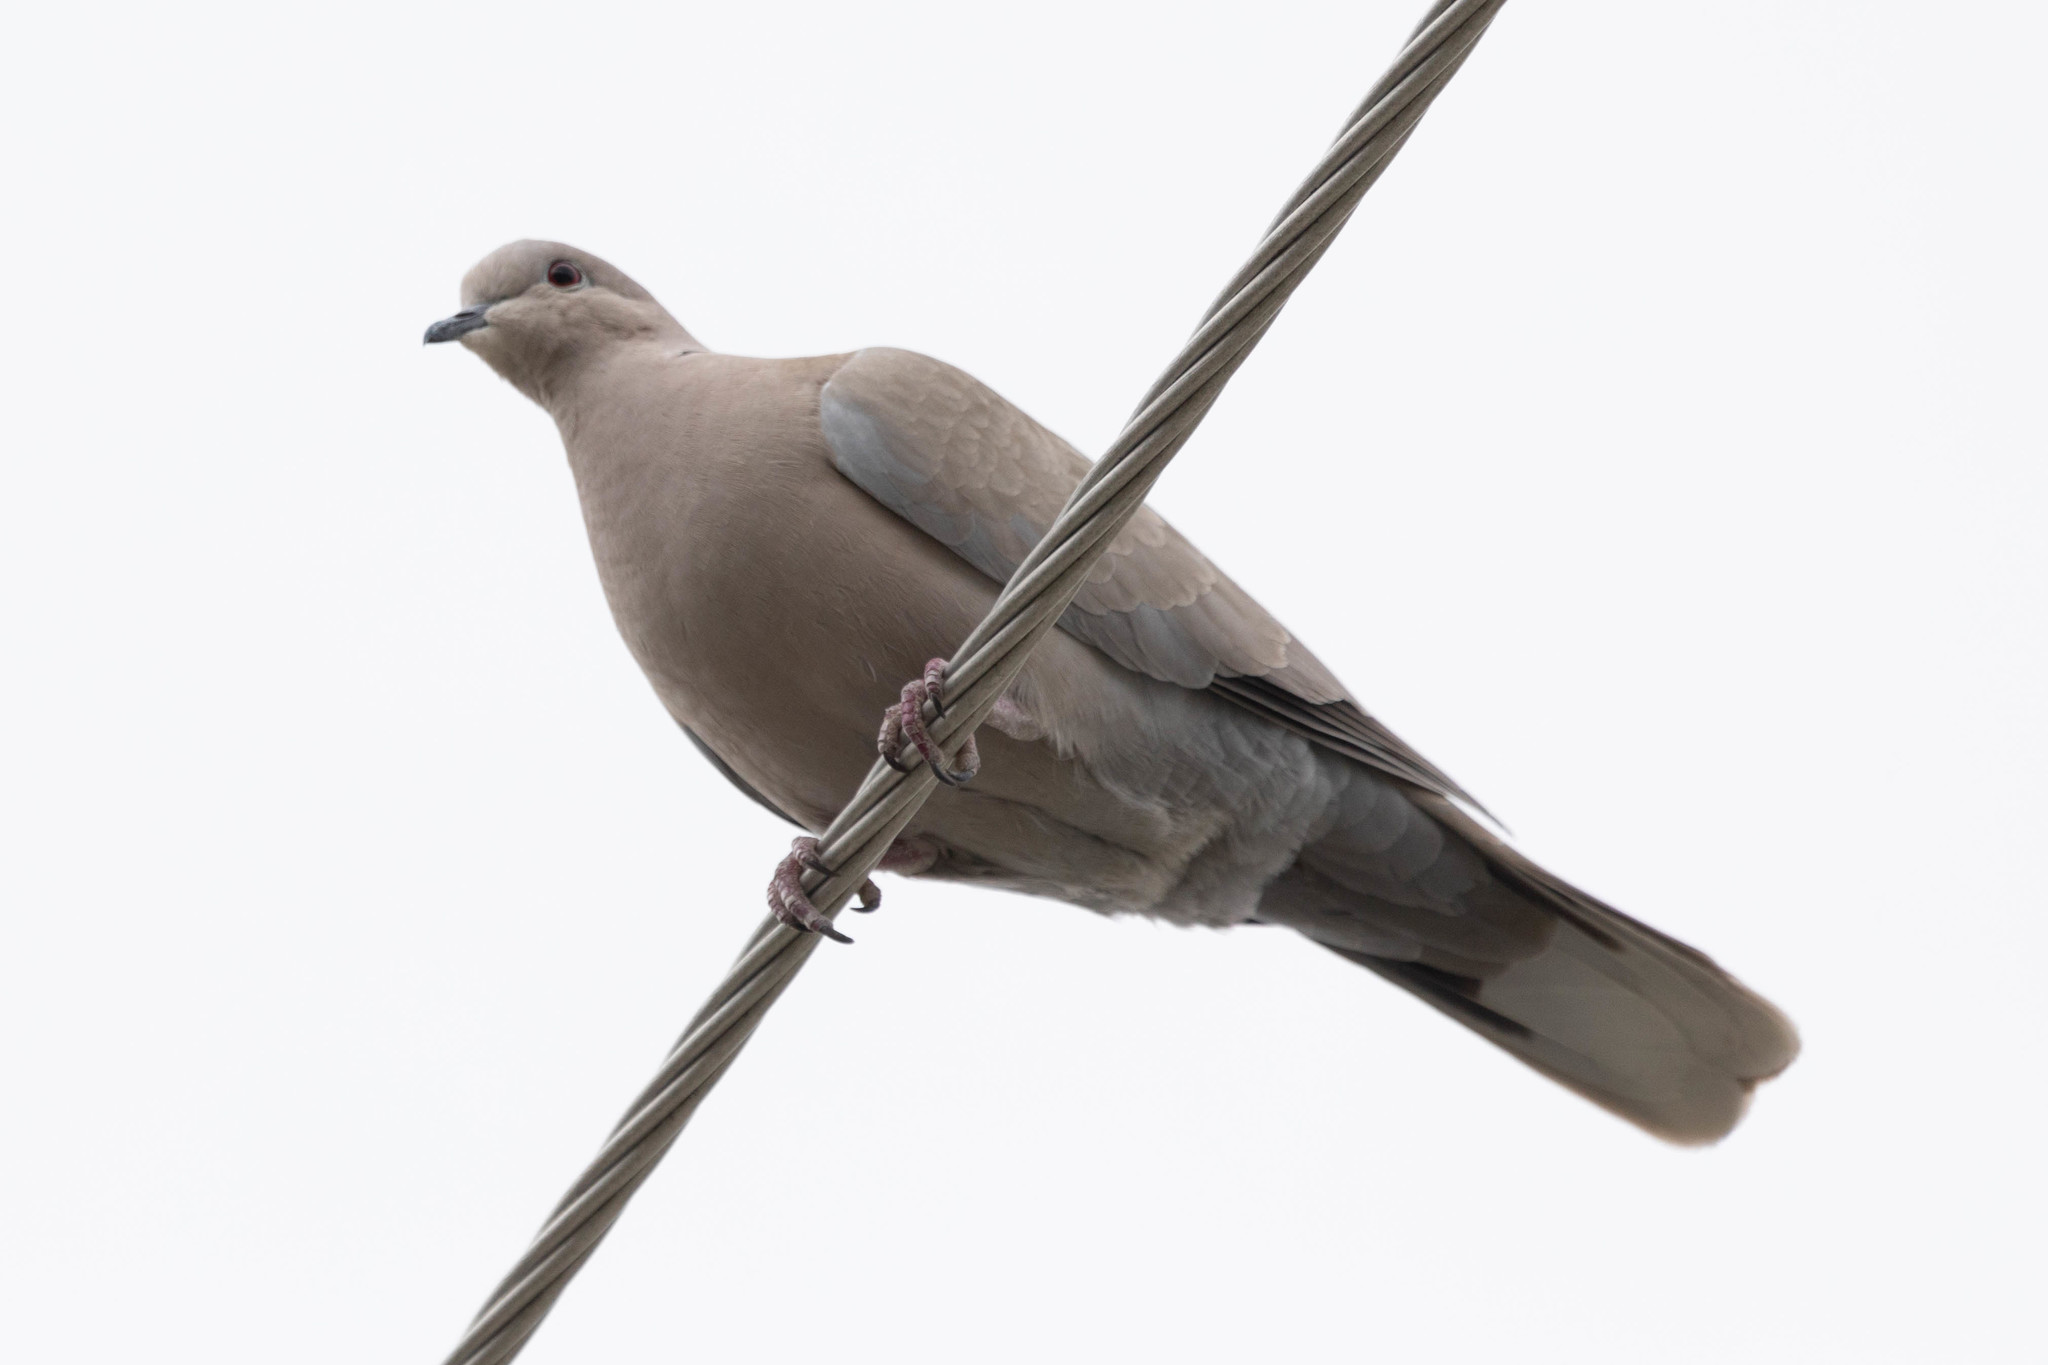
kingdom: Animalia
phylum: Chordata
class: Aves
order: Columbiformes
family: Columbidae
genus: Streptopelia
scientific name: Streptopelia decaocto
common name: Eurasian collared dove
